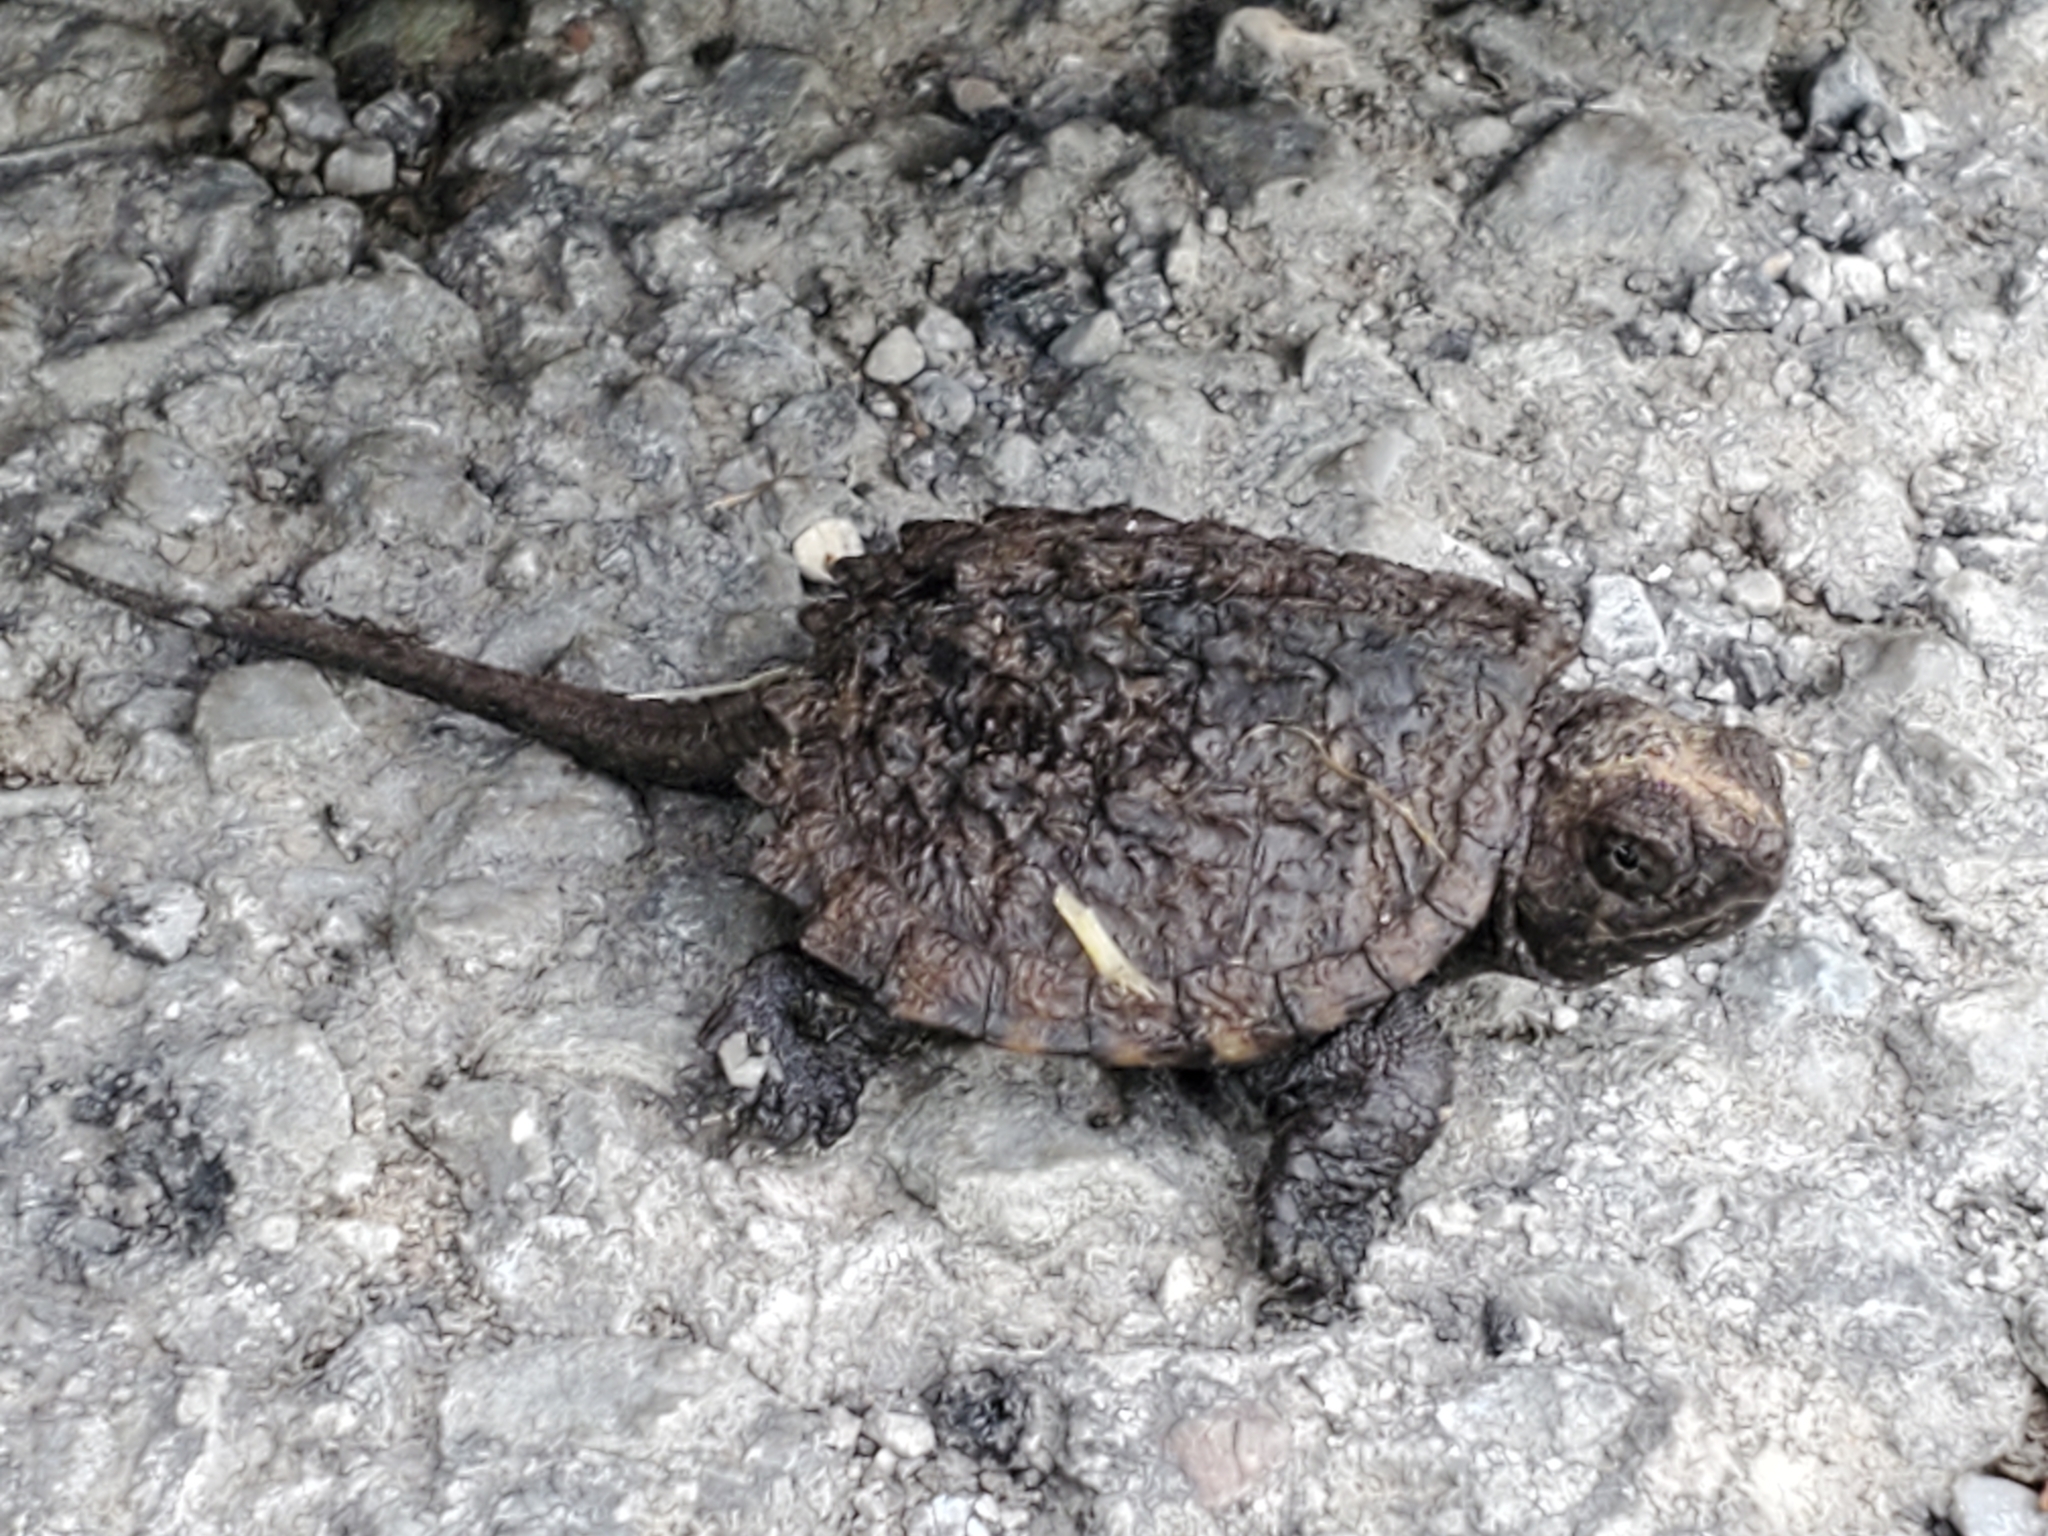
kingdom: Animalia
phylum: Chordata
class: Testudines
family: Chelydridae
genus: Chelydra
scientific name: Chelydra serpentina
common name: Common snapping turtle
